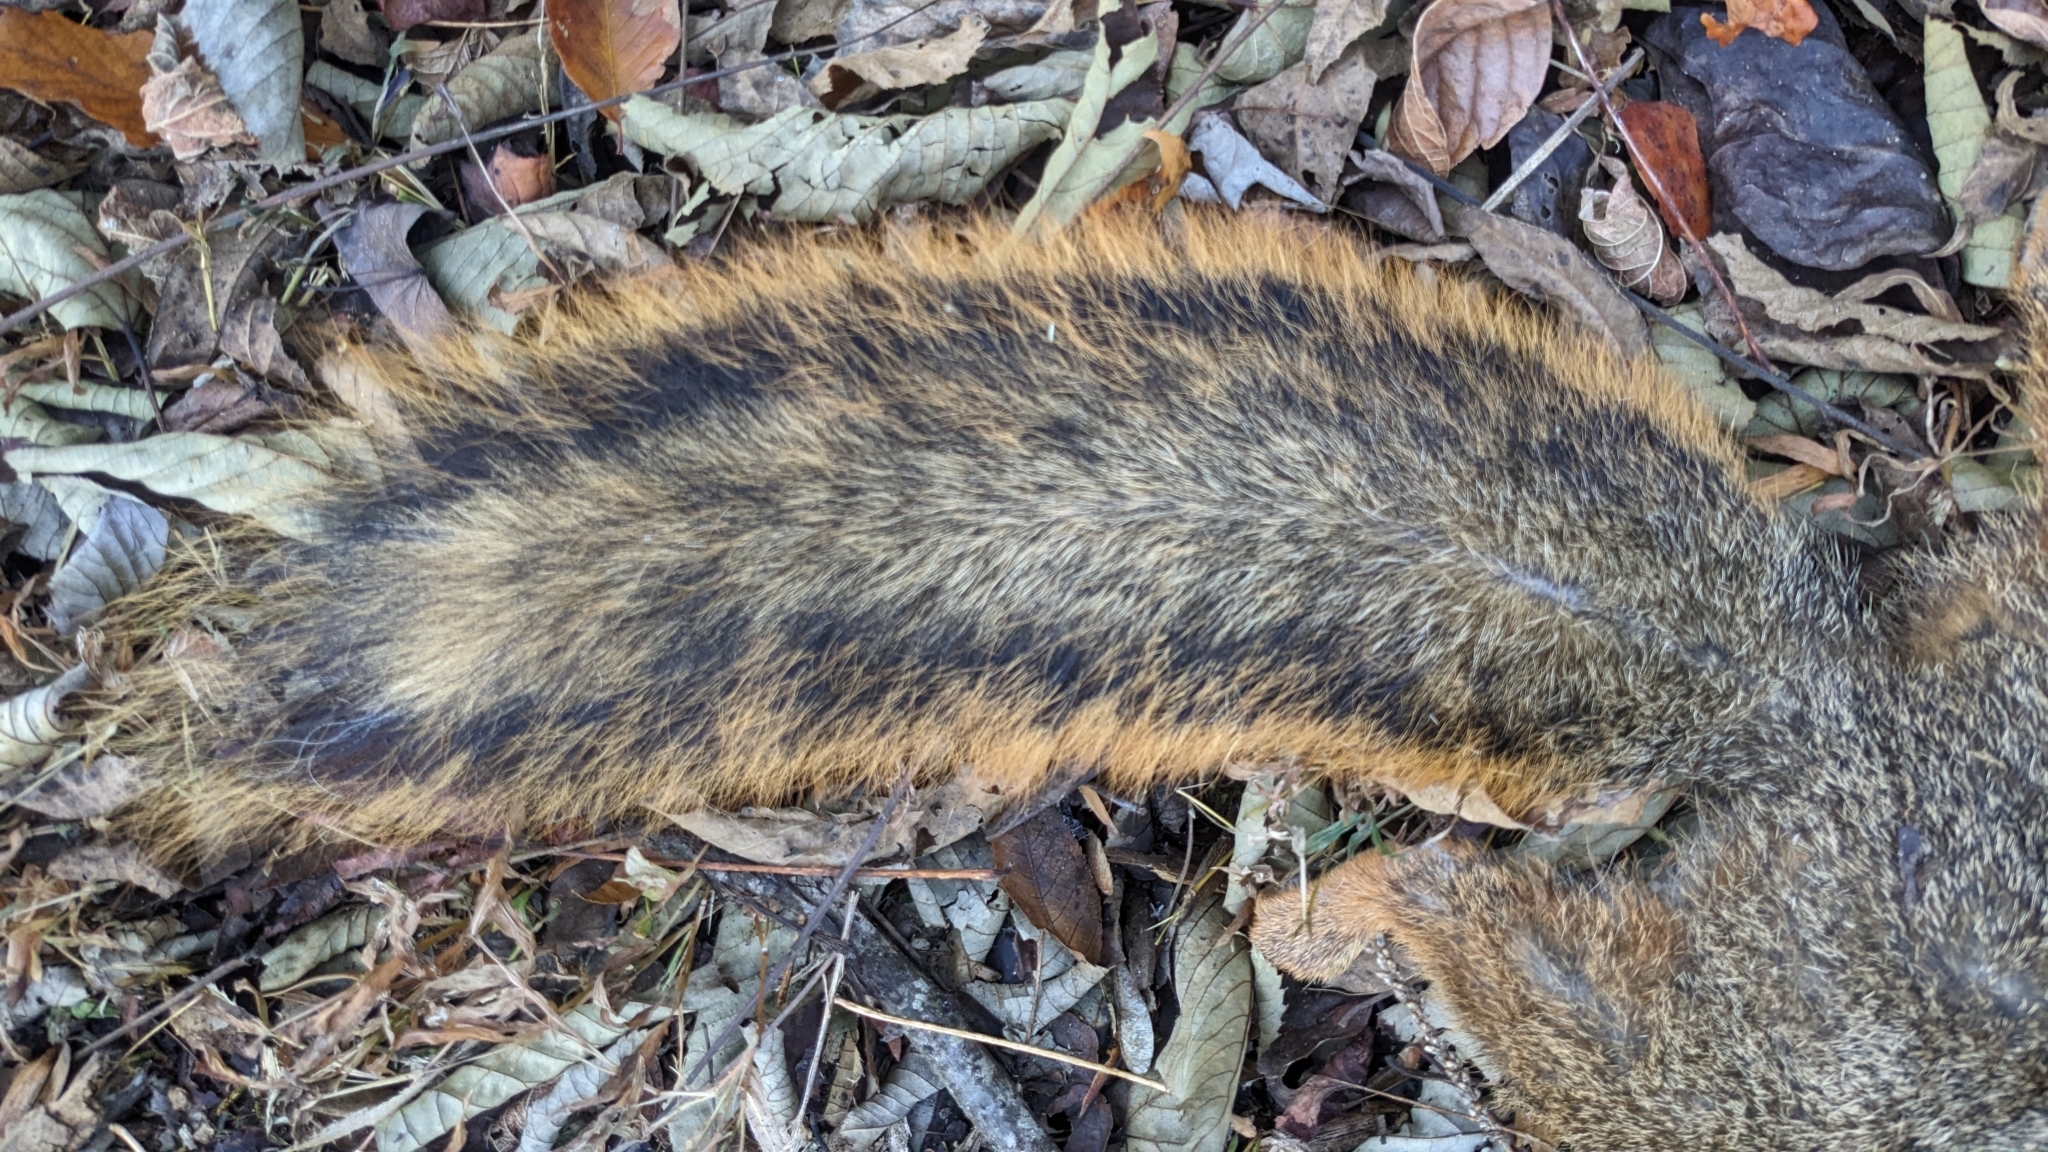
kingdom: Animalia
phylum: Chordata
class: Mammalia
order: Rodentia
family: Sciuridae
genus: Sciurus
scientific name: Sciurus niger
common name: Fox squirrel
